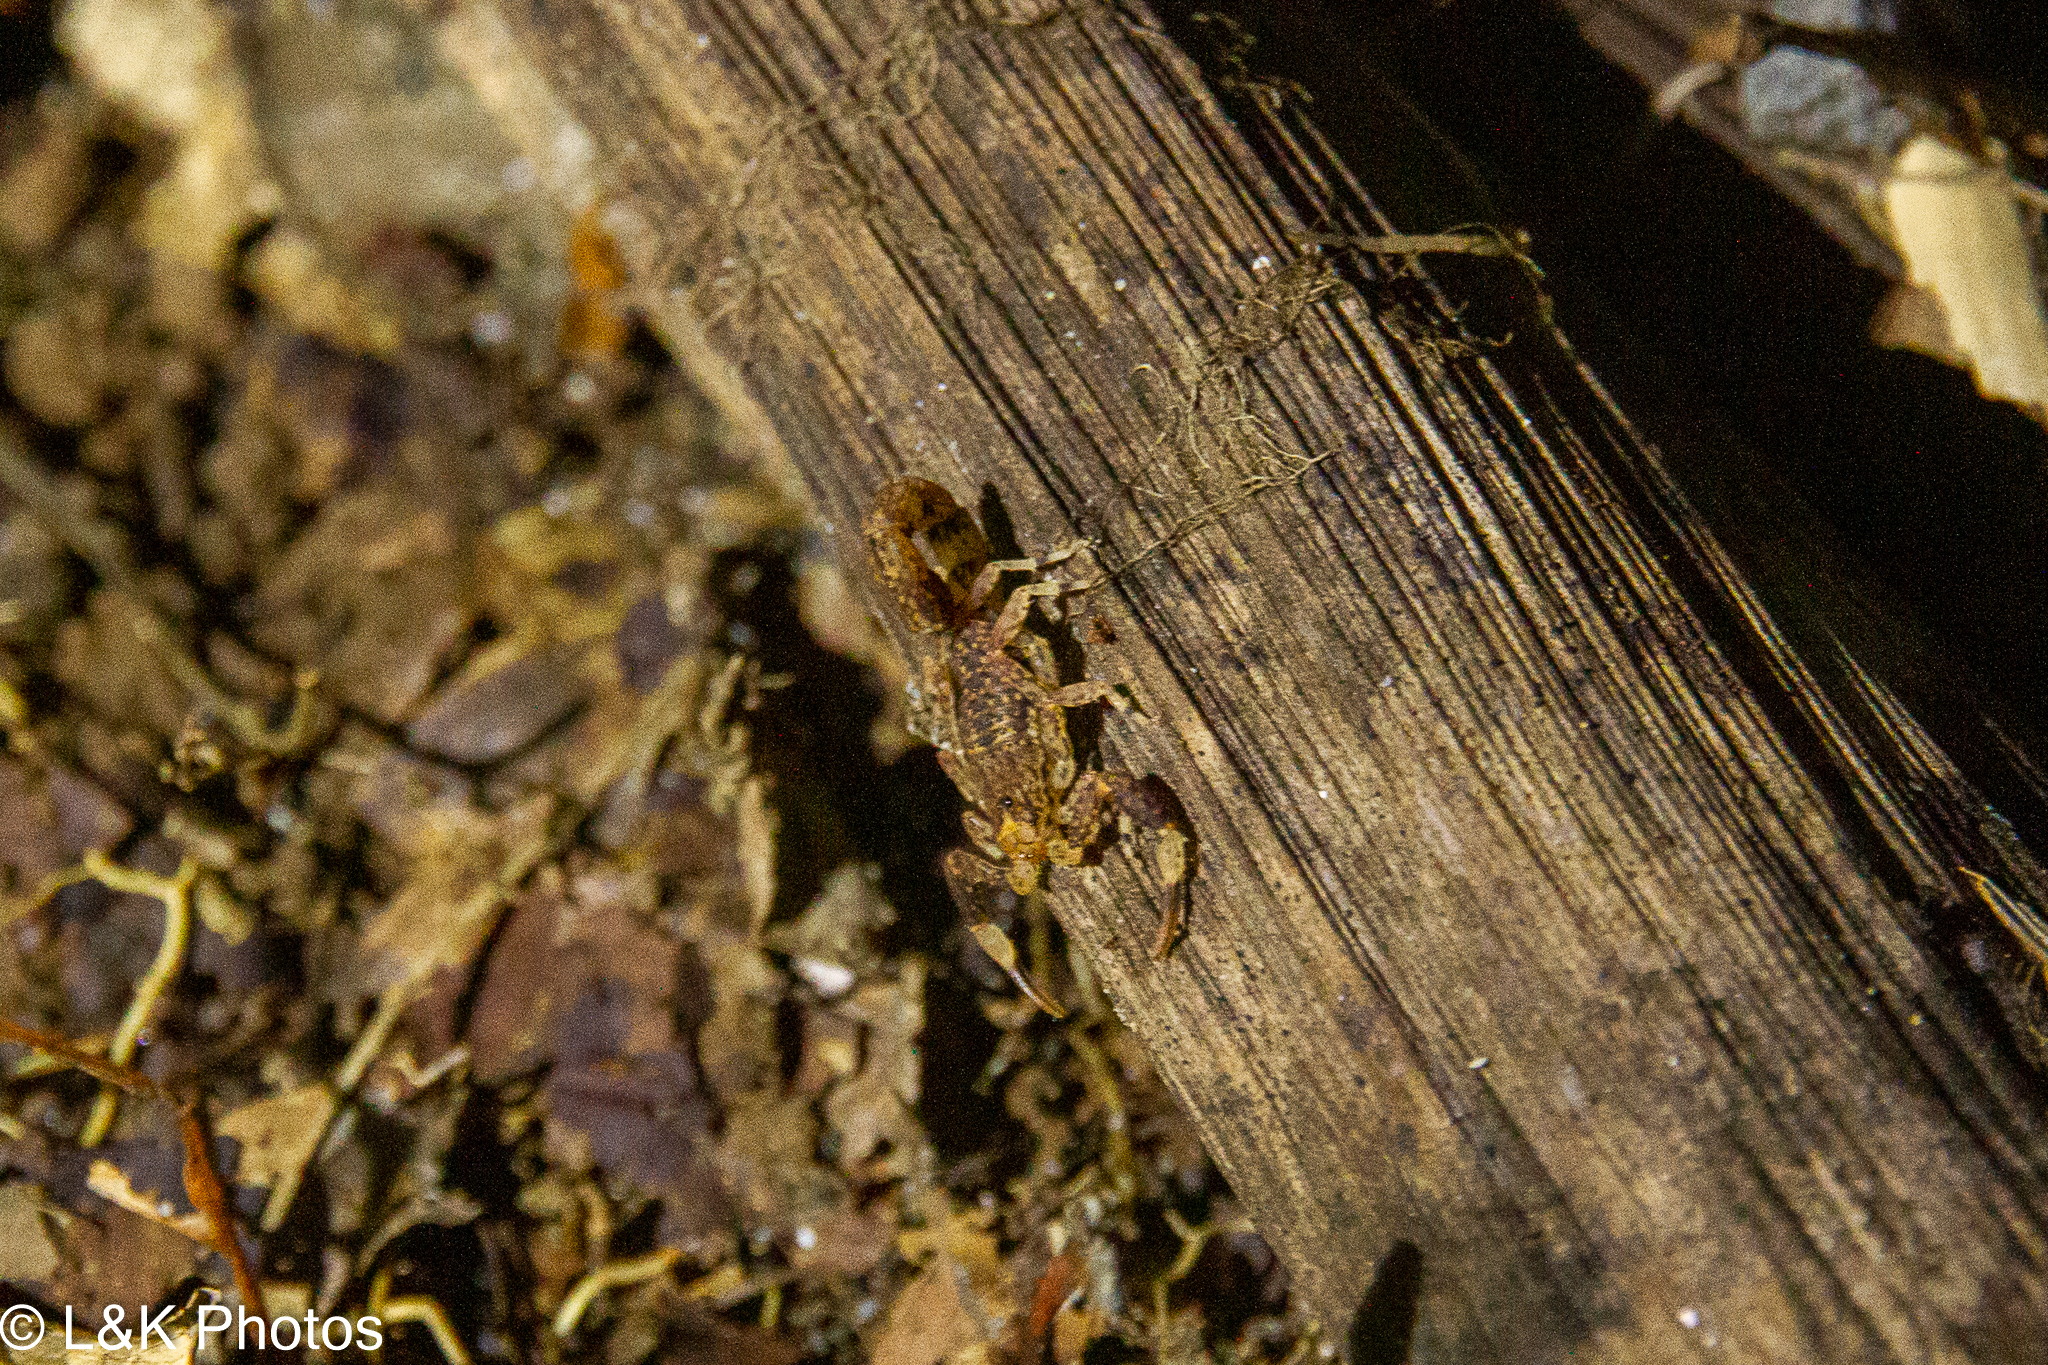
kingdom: Animalia
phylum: Arthropoda
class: Arachnida
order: Scorpiones
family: Buthidae
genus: Lychas
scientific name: Lychas variatus
